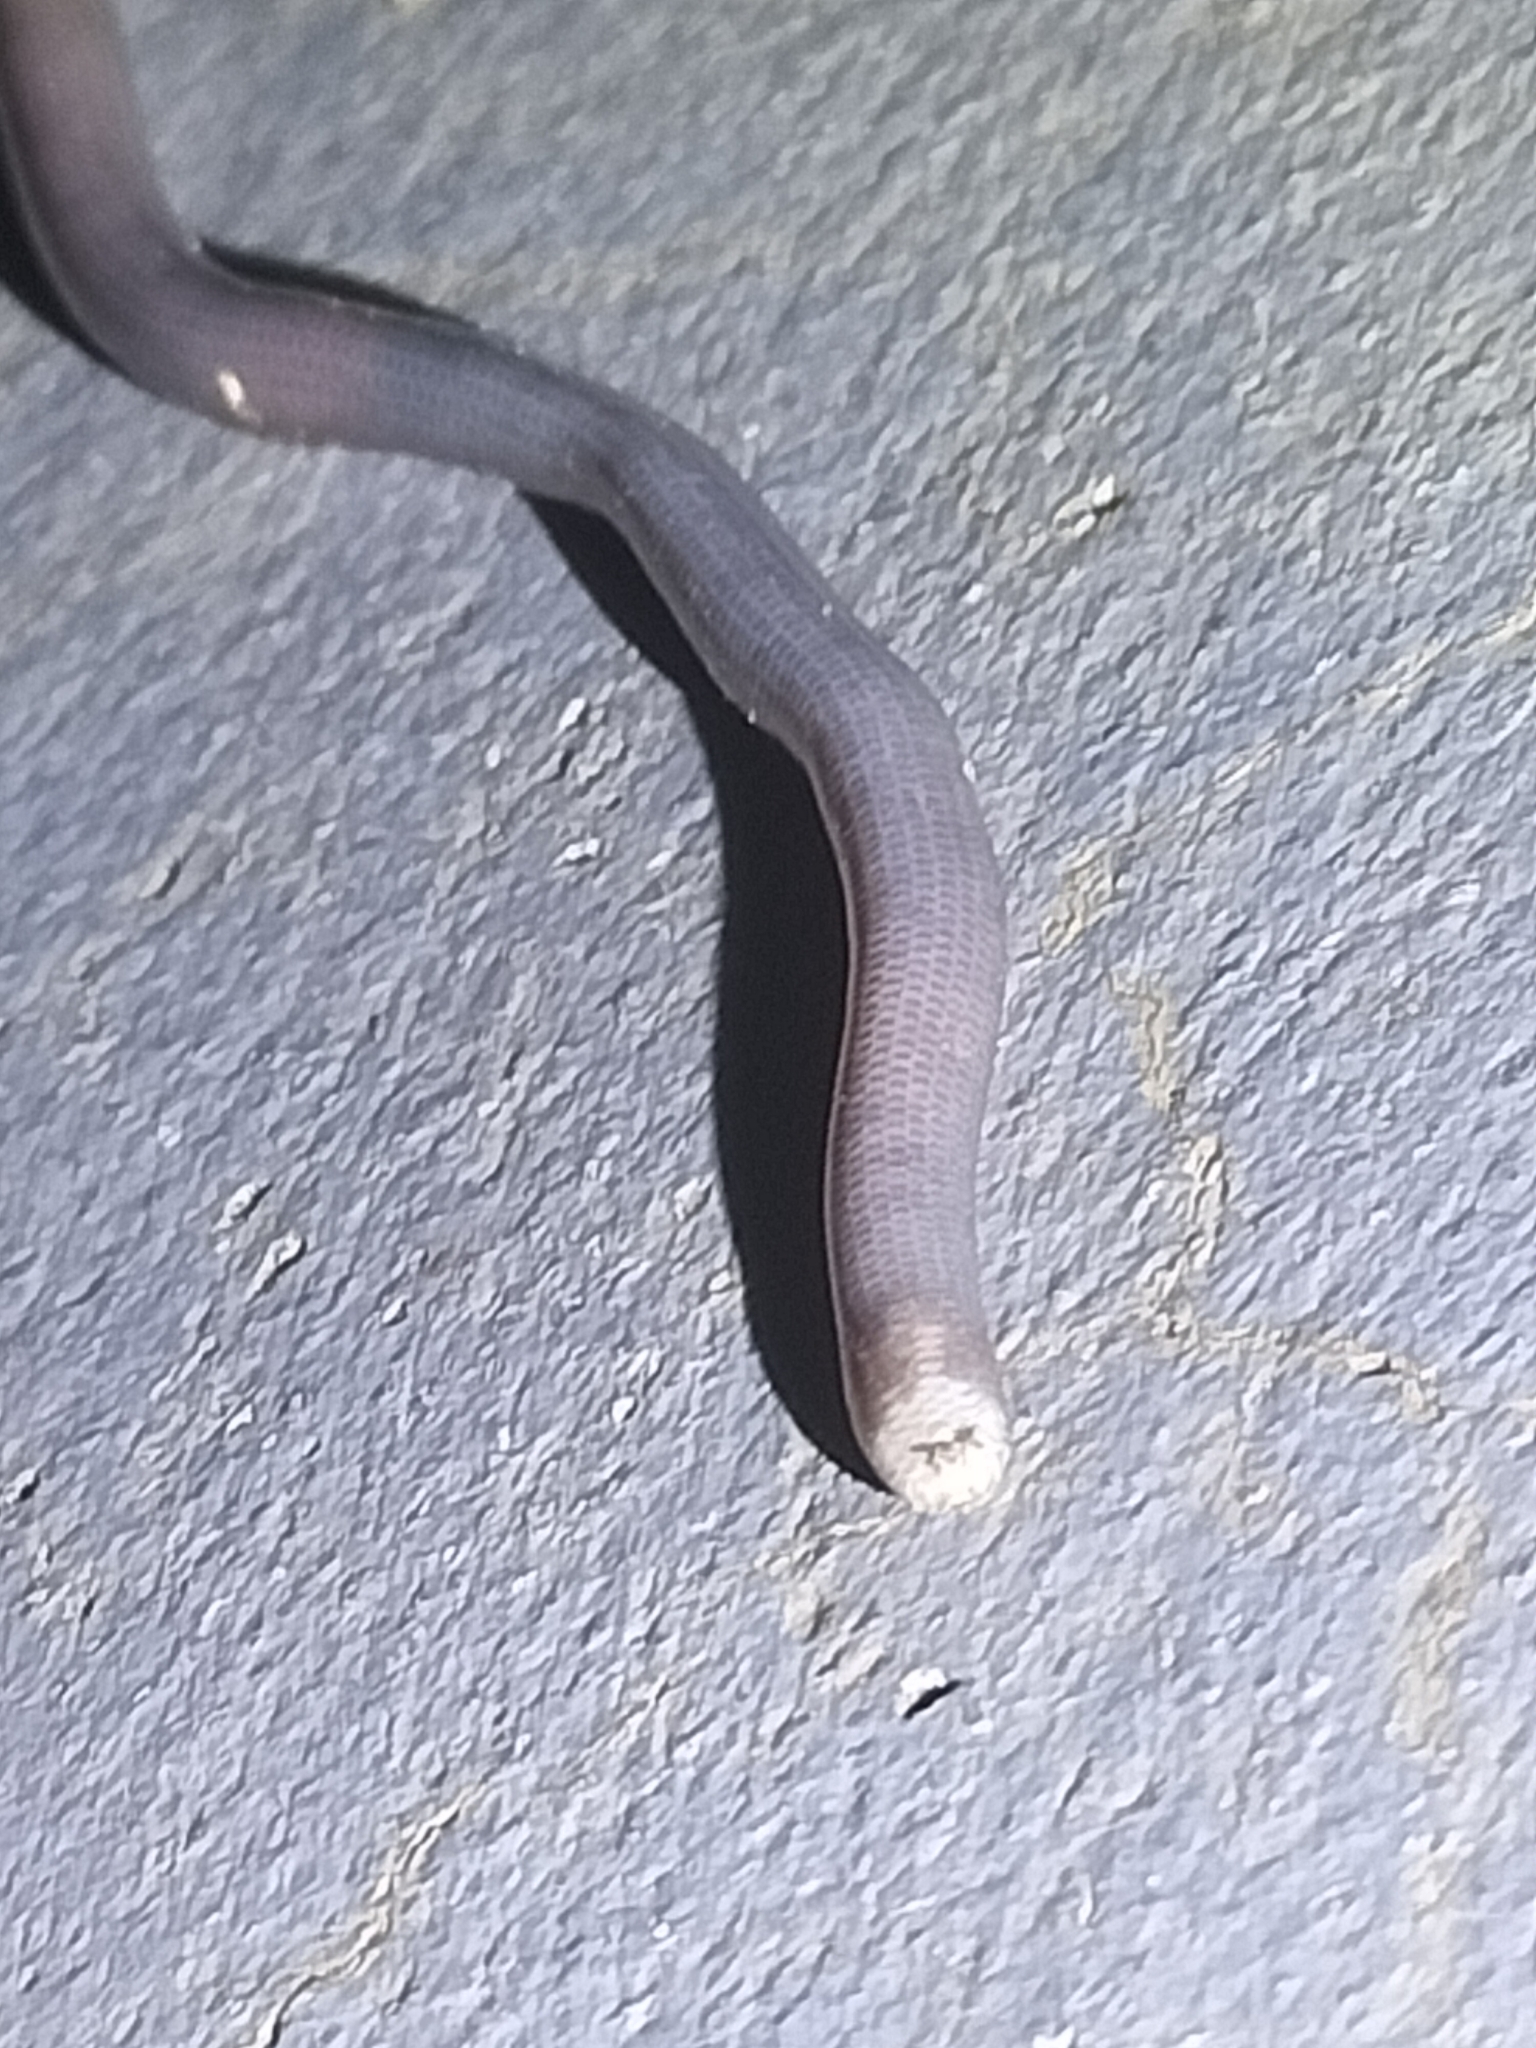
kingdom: Animalia
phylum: Chordata
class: Squamata
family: Typhlopidae
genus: Anilios
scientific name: Anilios torresianus
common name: Torres strait blindsnake
